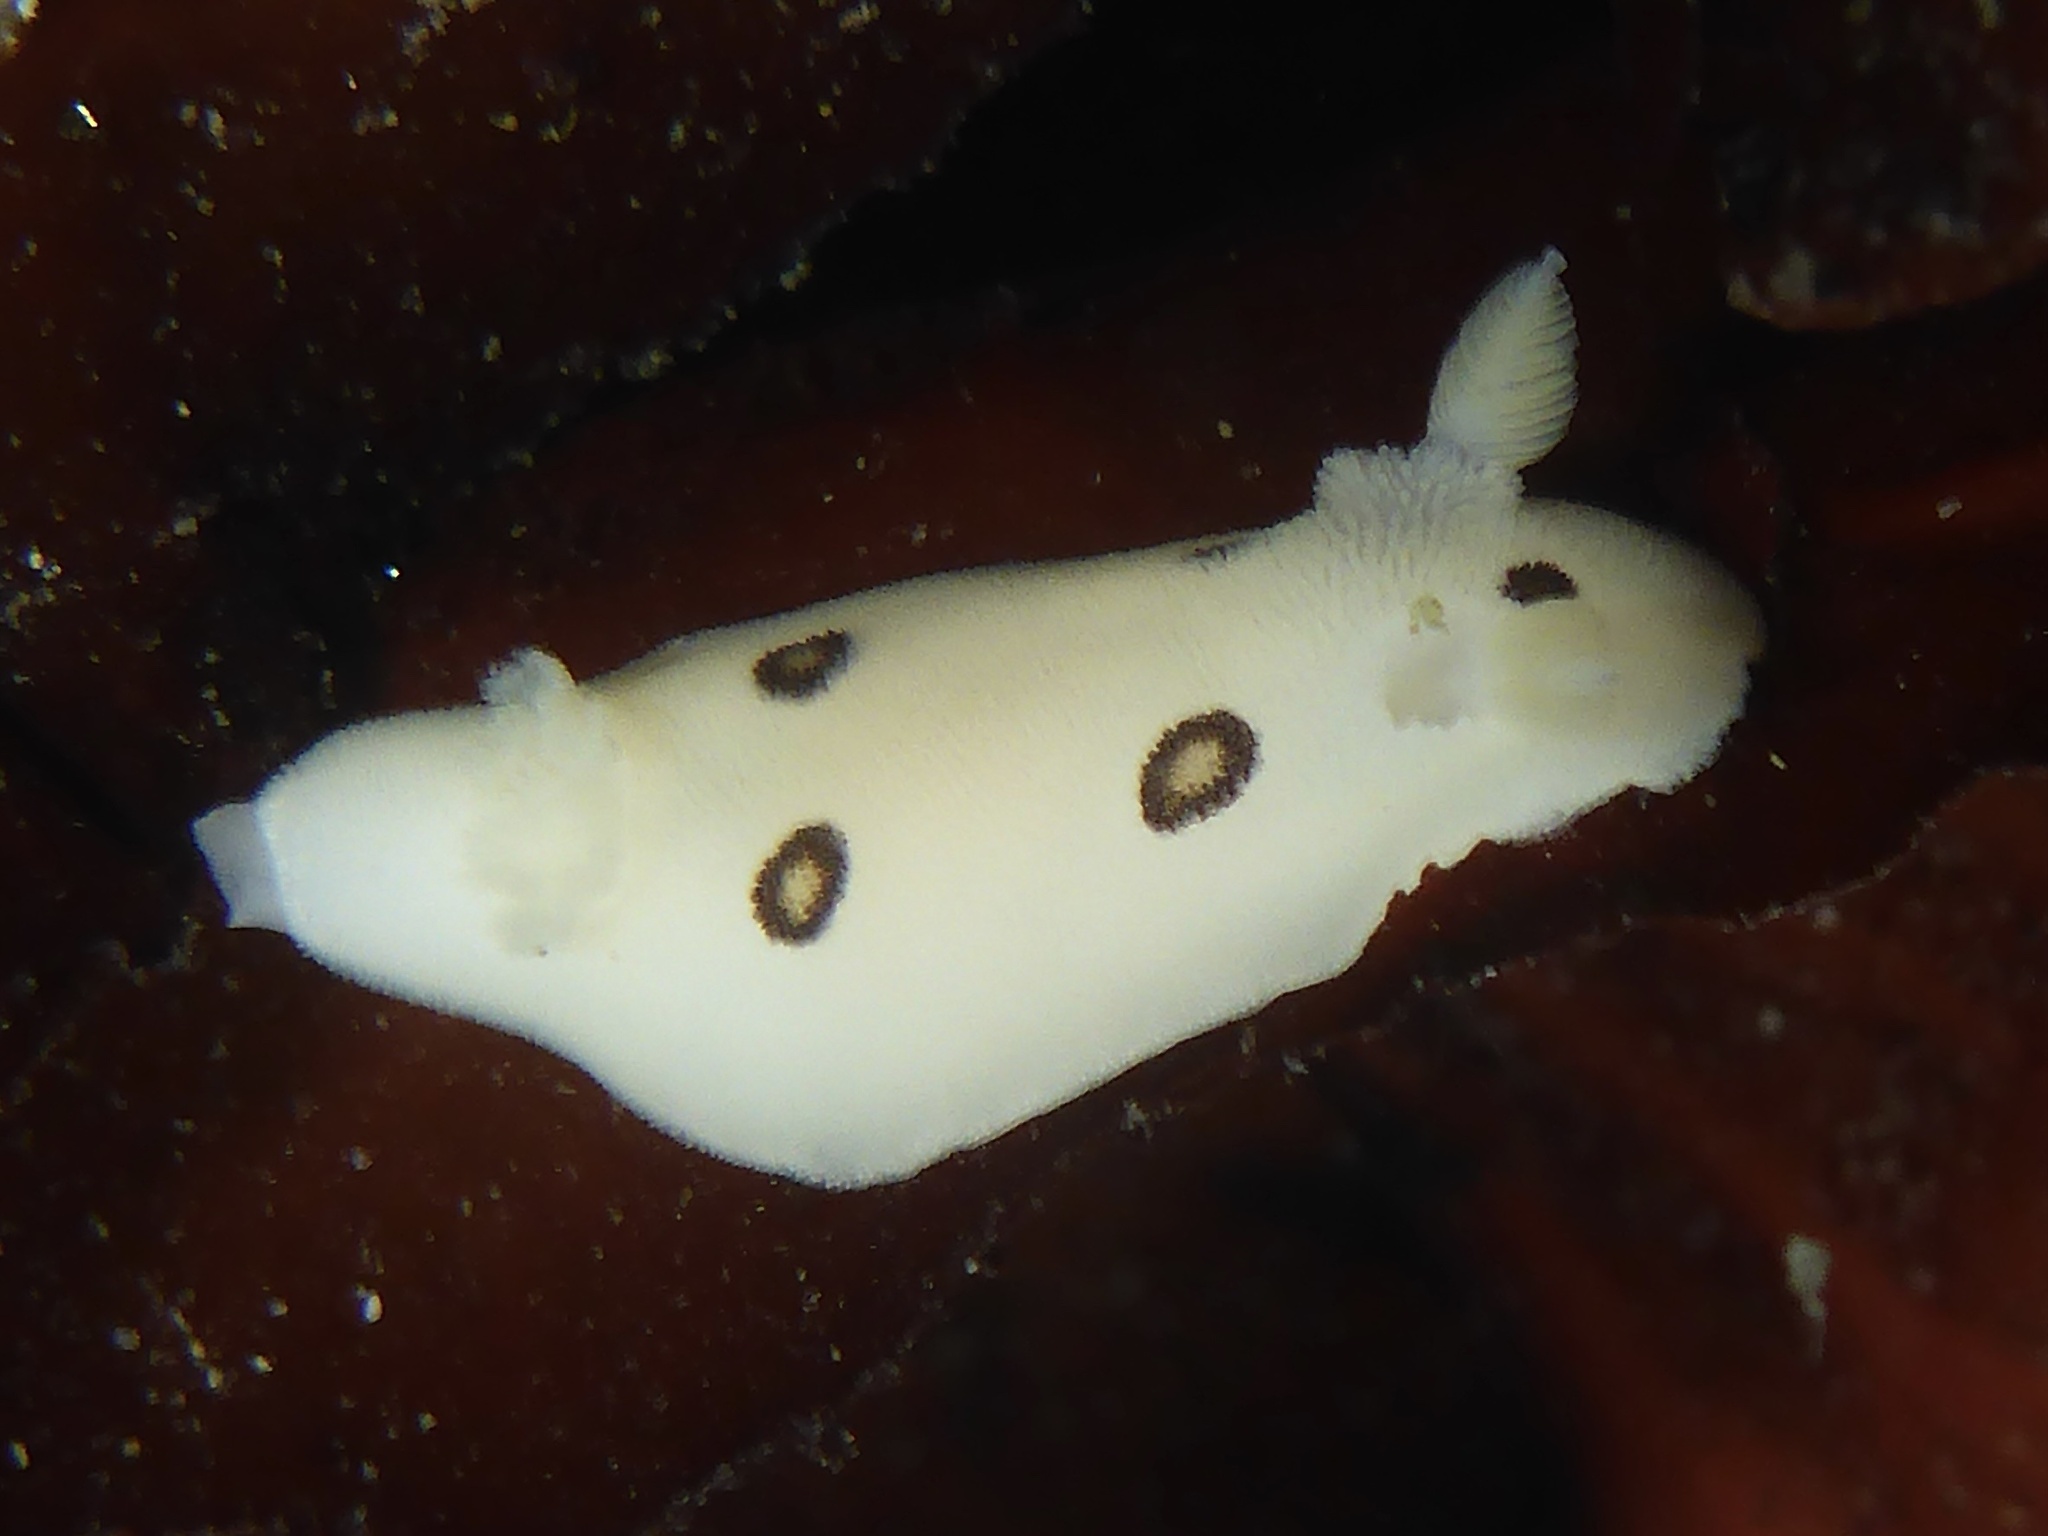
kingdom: Animalia
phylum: Mollusca
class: Gastropoda
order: Nudibranchia
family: Discodorididae
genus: Diaulula
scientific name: Diaulula sandiegensis
